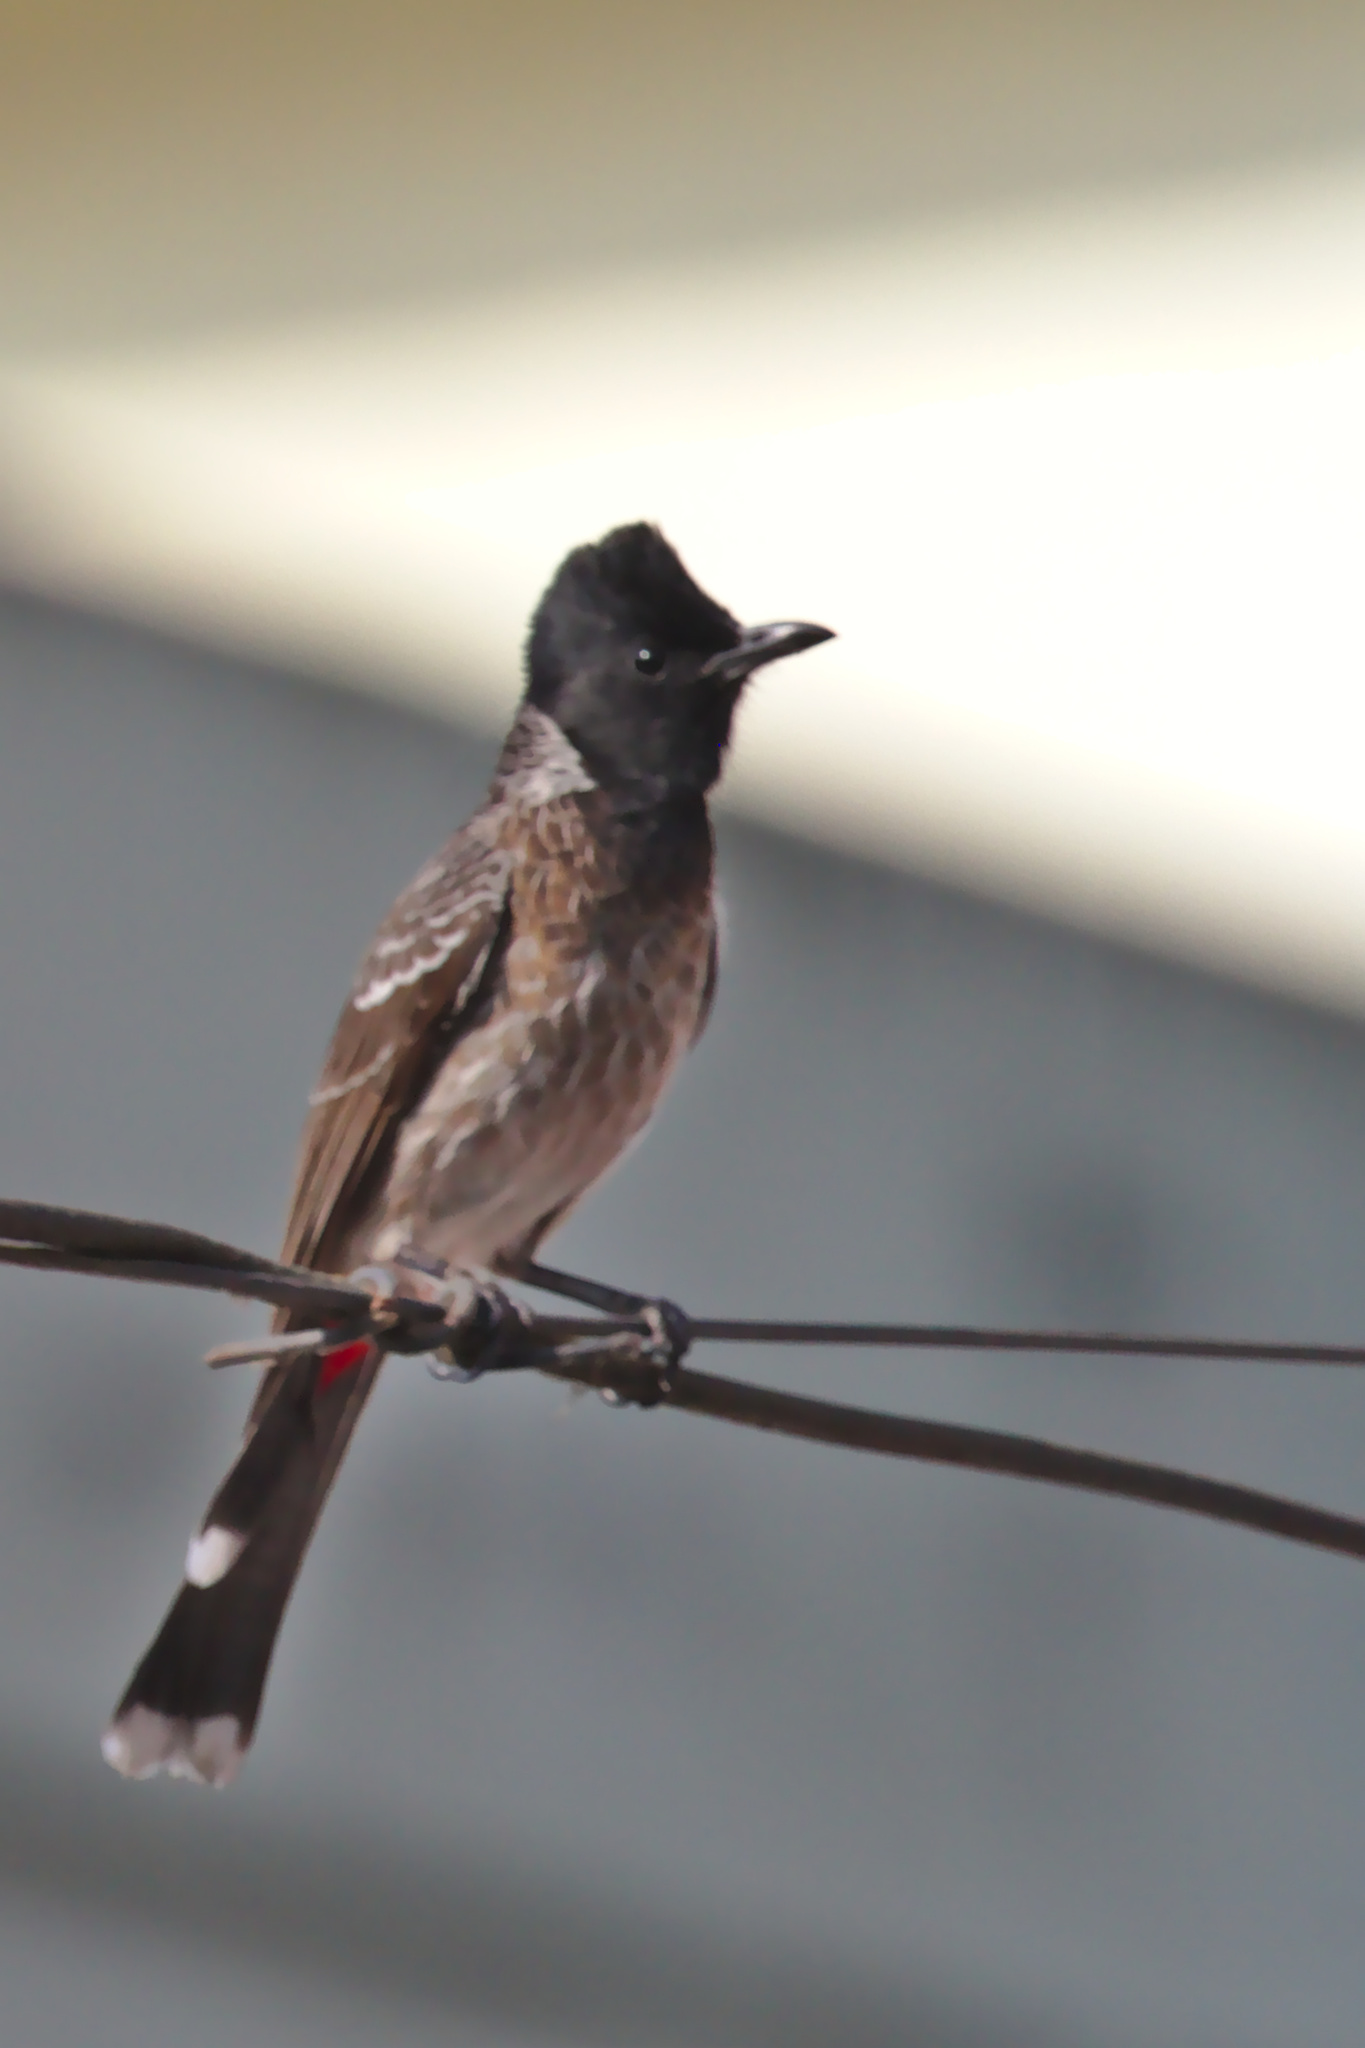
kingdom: Animalia
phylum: Chordata
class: Aves
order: Passeriformes
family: Pycnonotidae
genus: Pycnonotus
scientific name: Pycnonotus cafer
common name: Red-vented bulbul
